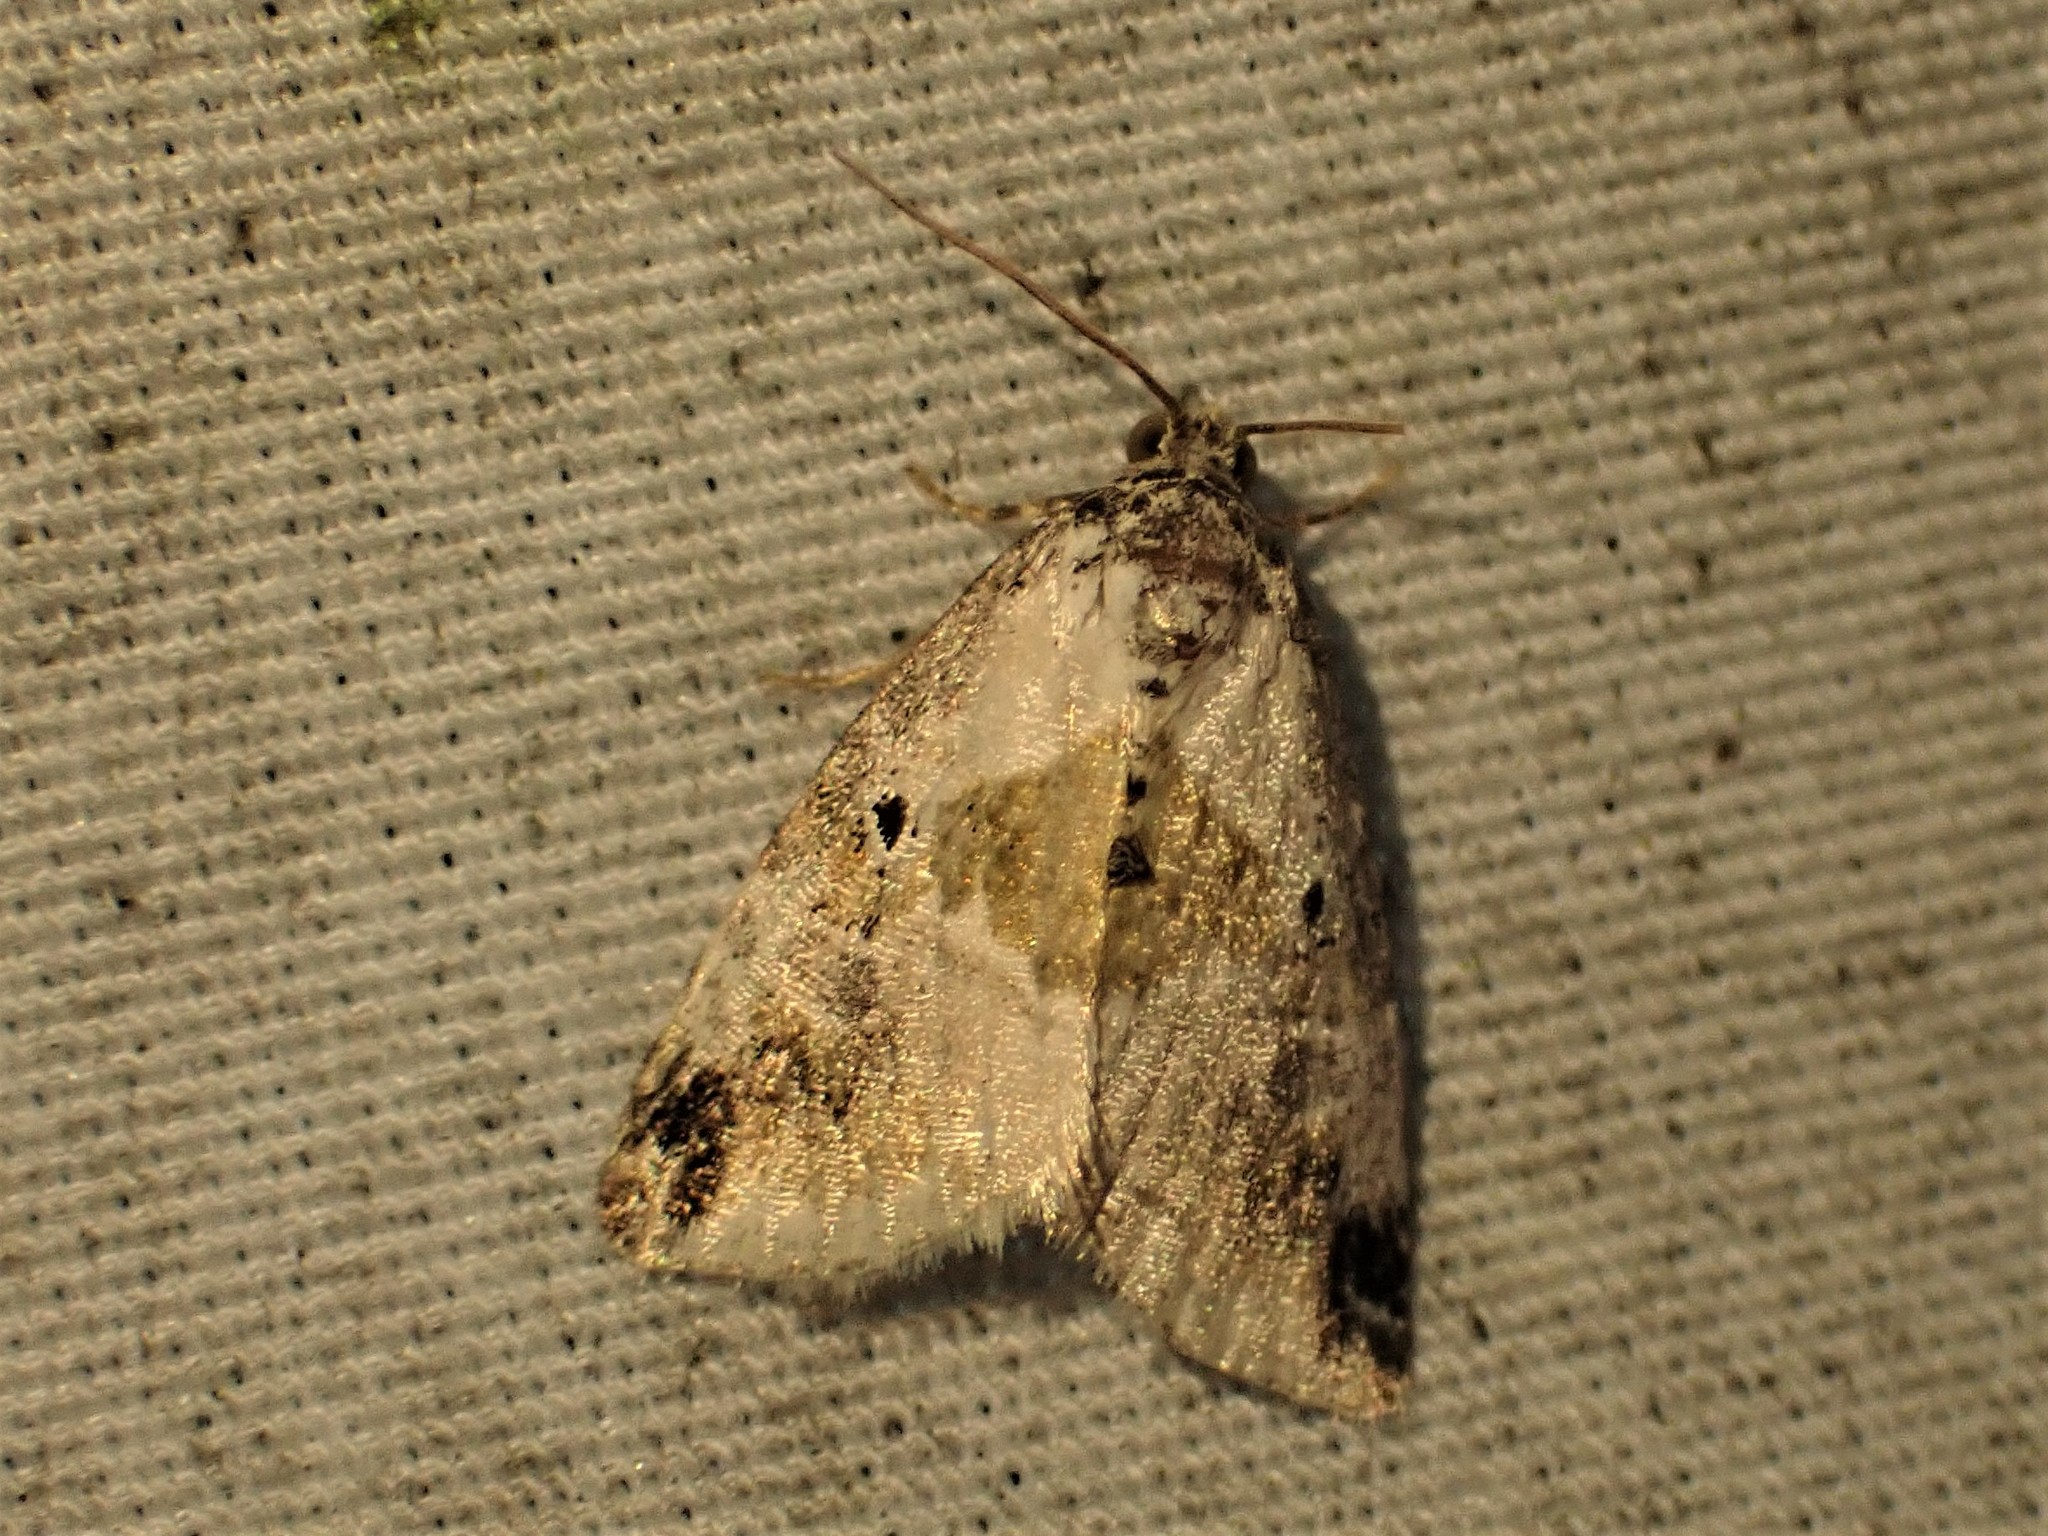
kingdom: Animalia
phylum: Arthropoda
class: Insecta
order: Lepidoptera
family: Noctuidae
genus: Maliattha
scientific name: Maliattha synochitis
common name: Black-dotted glyph
